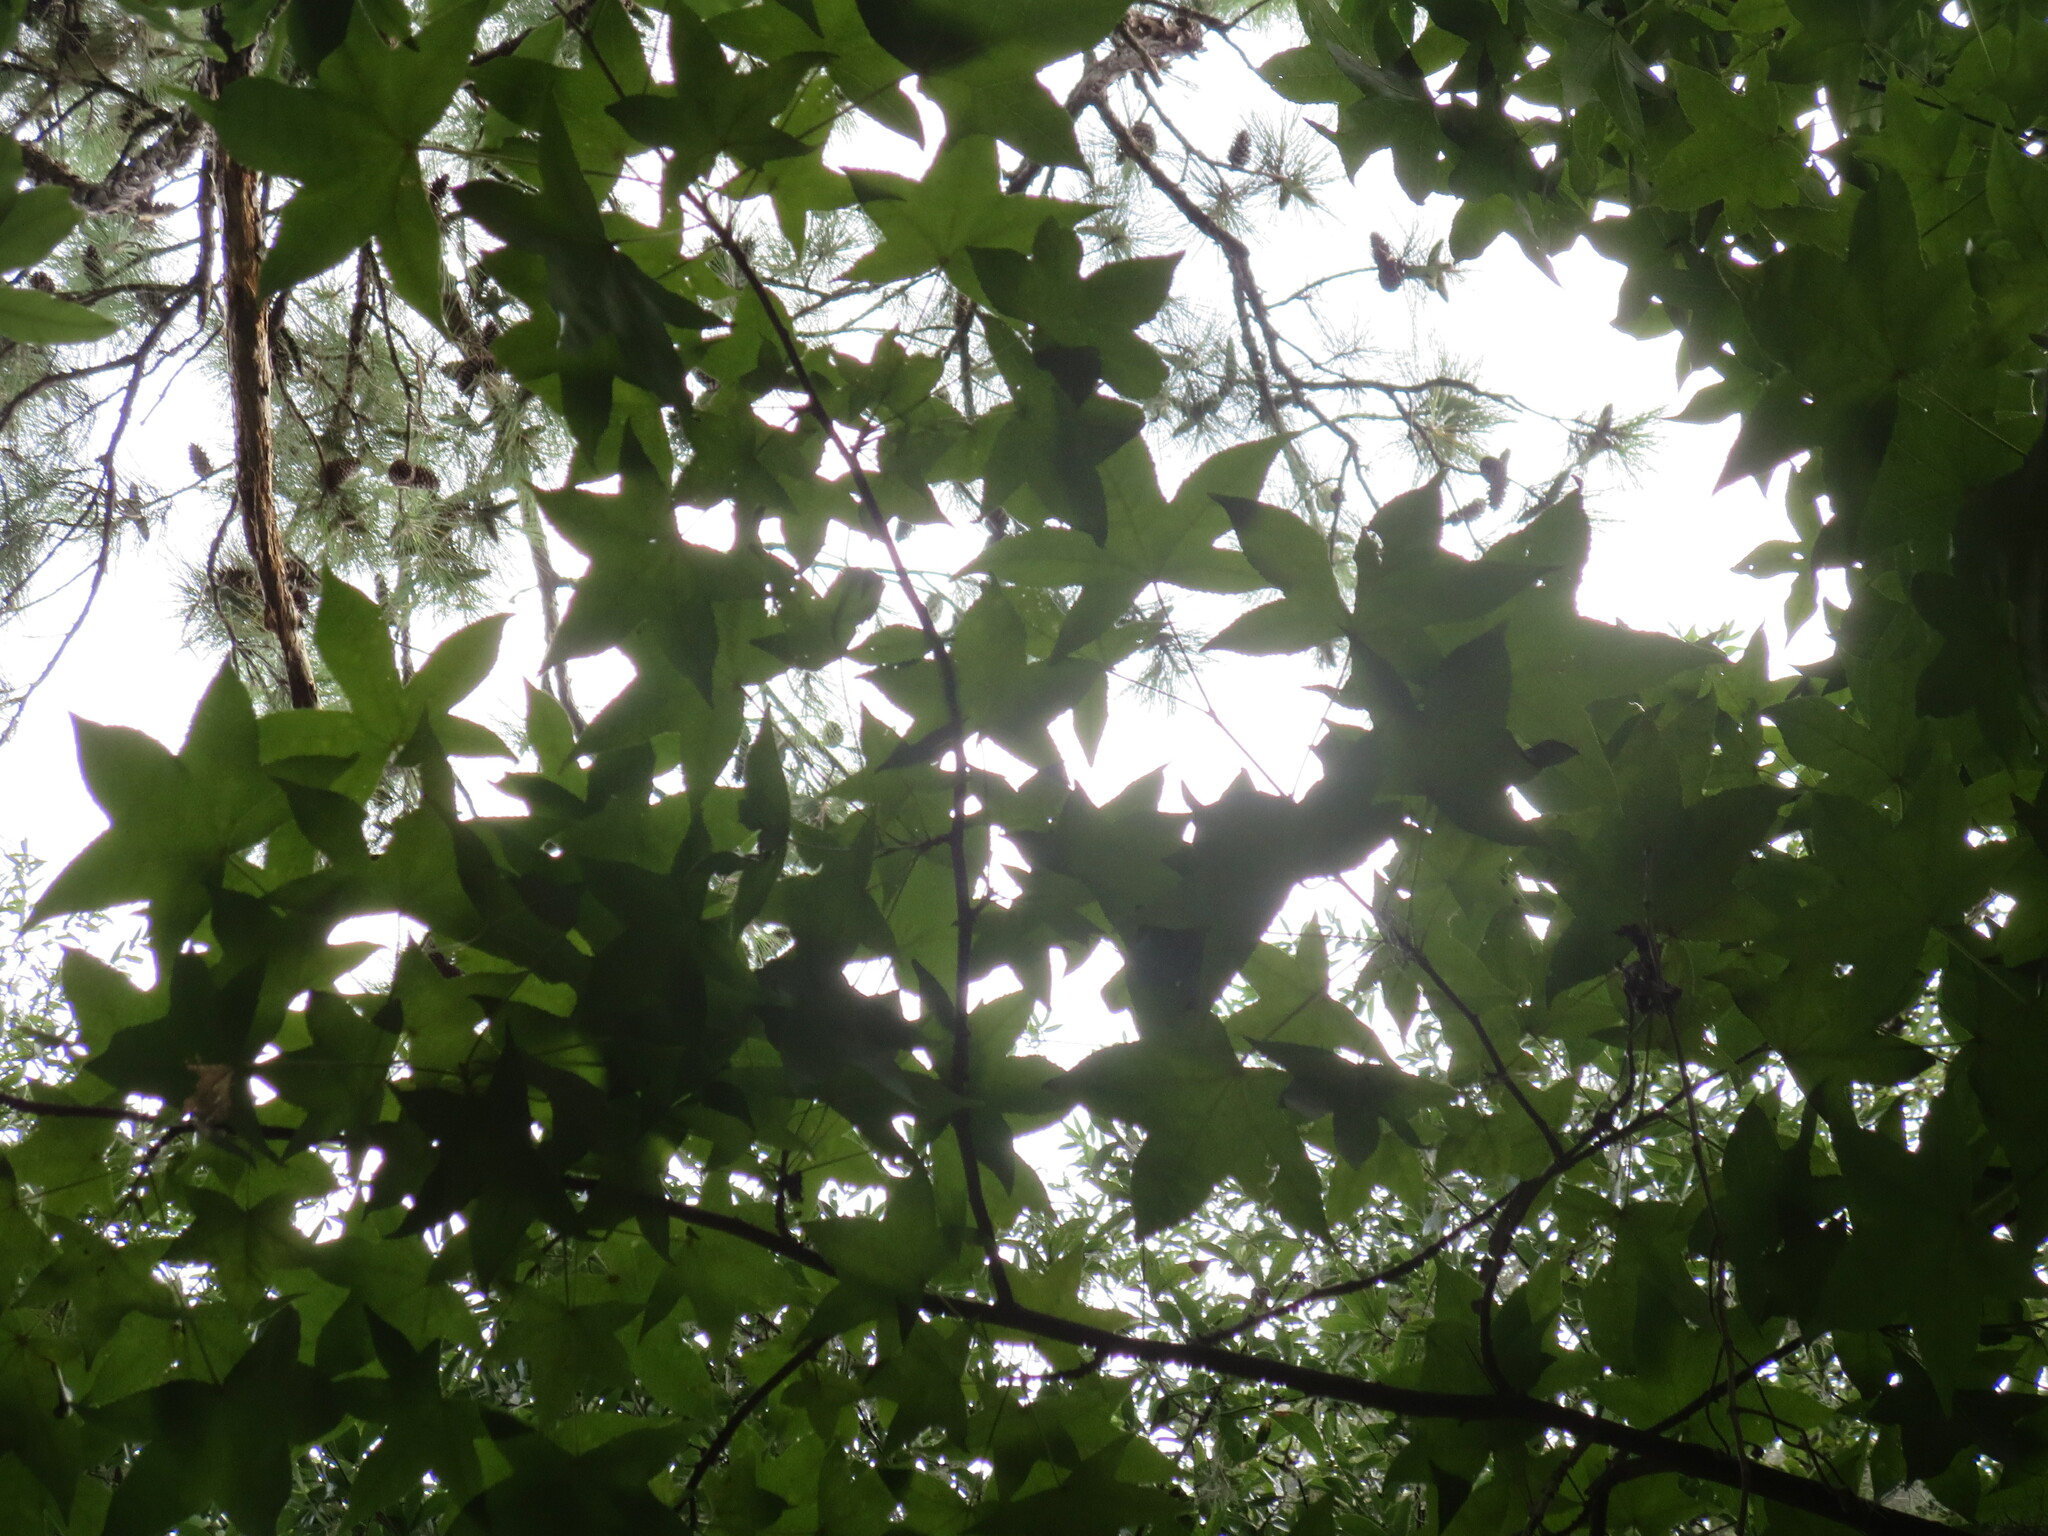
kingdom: Plantae
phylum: Tracheophyta
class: Magnoliopsida
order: Saxifragales
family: Altingiaceae
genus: Liquidambar
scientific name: Liquidambar styraciflua
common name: Sweet gum
